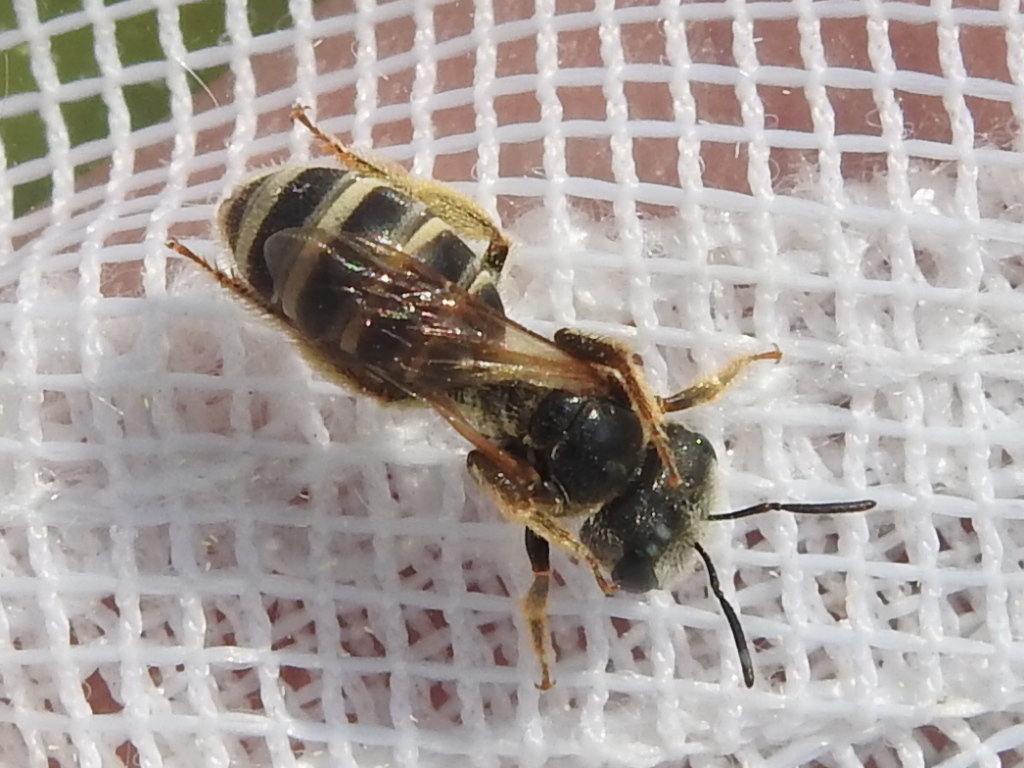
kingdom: Animalia
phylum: Arthropoda
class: Insecta
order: Hymenoptera
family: Halictidae
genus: Halictus
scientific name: Halictus ligatus
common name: Ligated furrow bee
